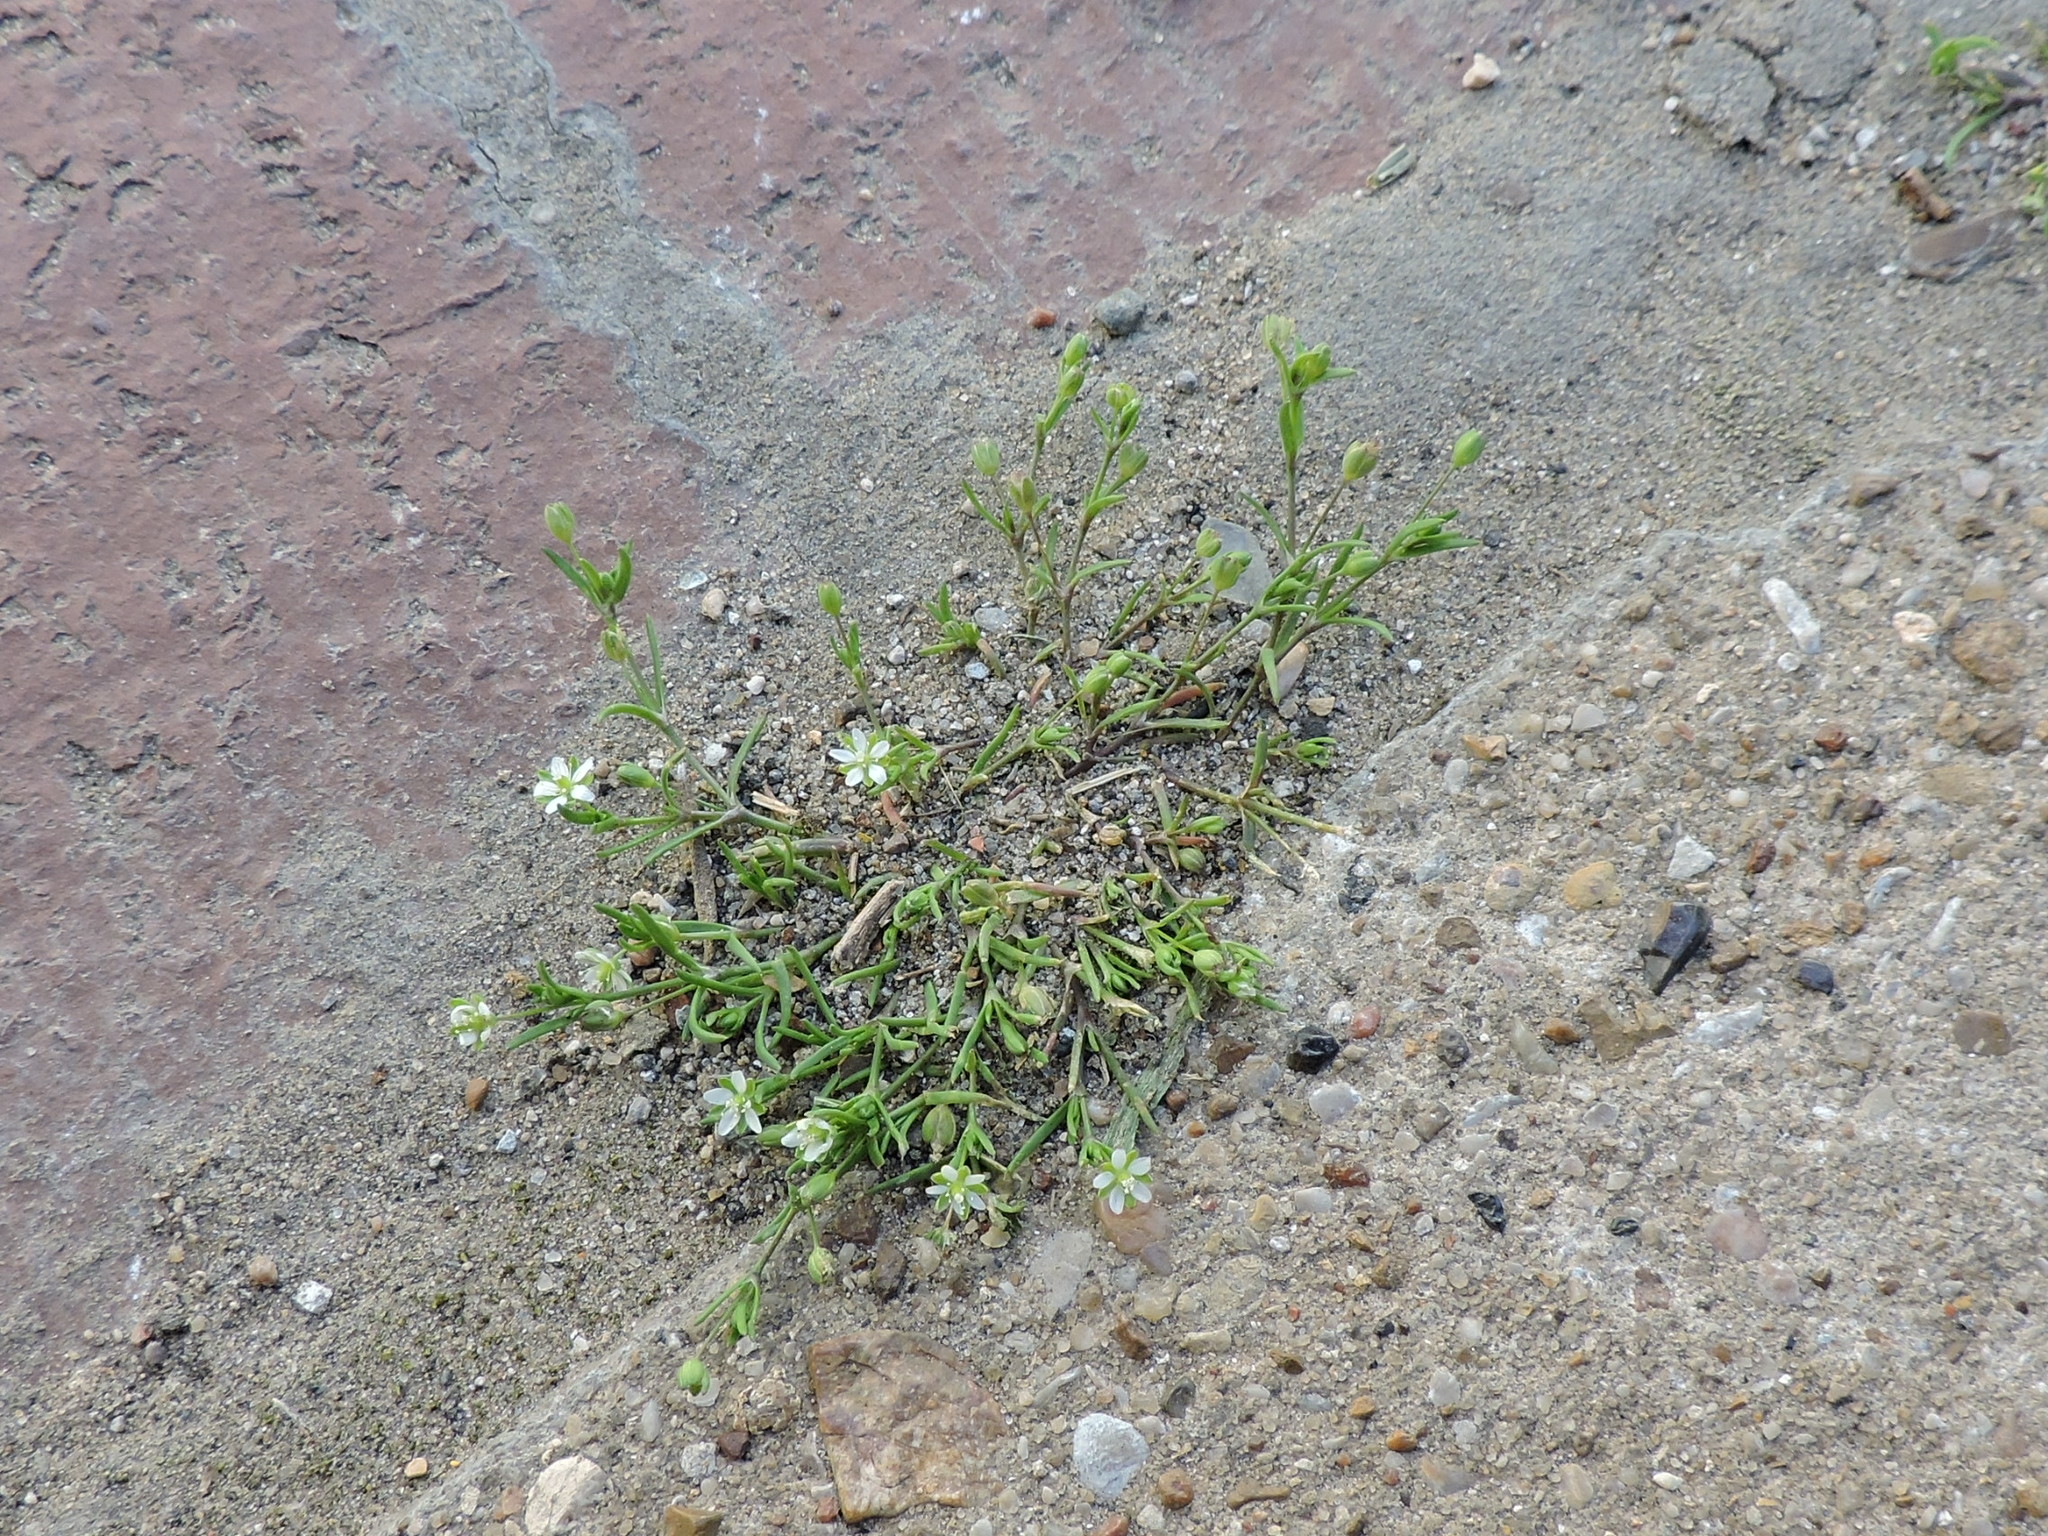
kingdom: Plantae
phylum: Tracheophyta
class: Magnoliopsida
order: Caryophyllales
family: Caryophyllaceae
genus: Arenaria
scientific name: Arenaria serpyllifolia
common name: Thyme-leaved sandwort
